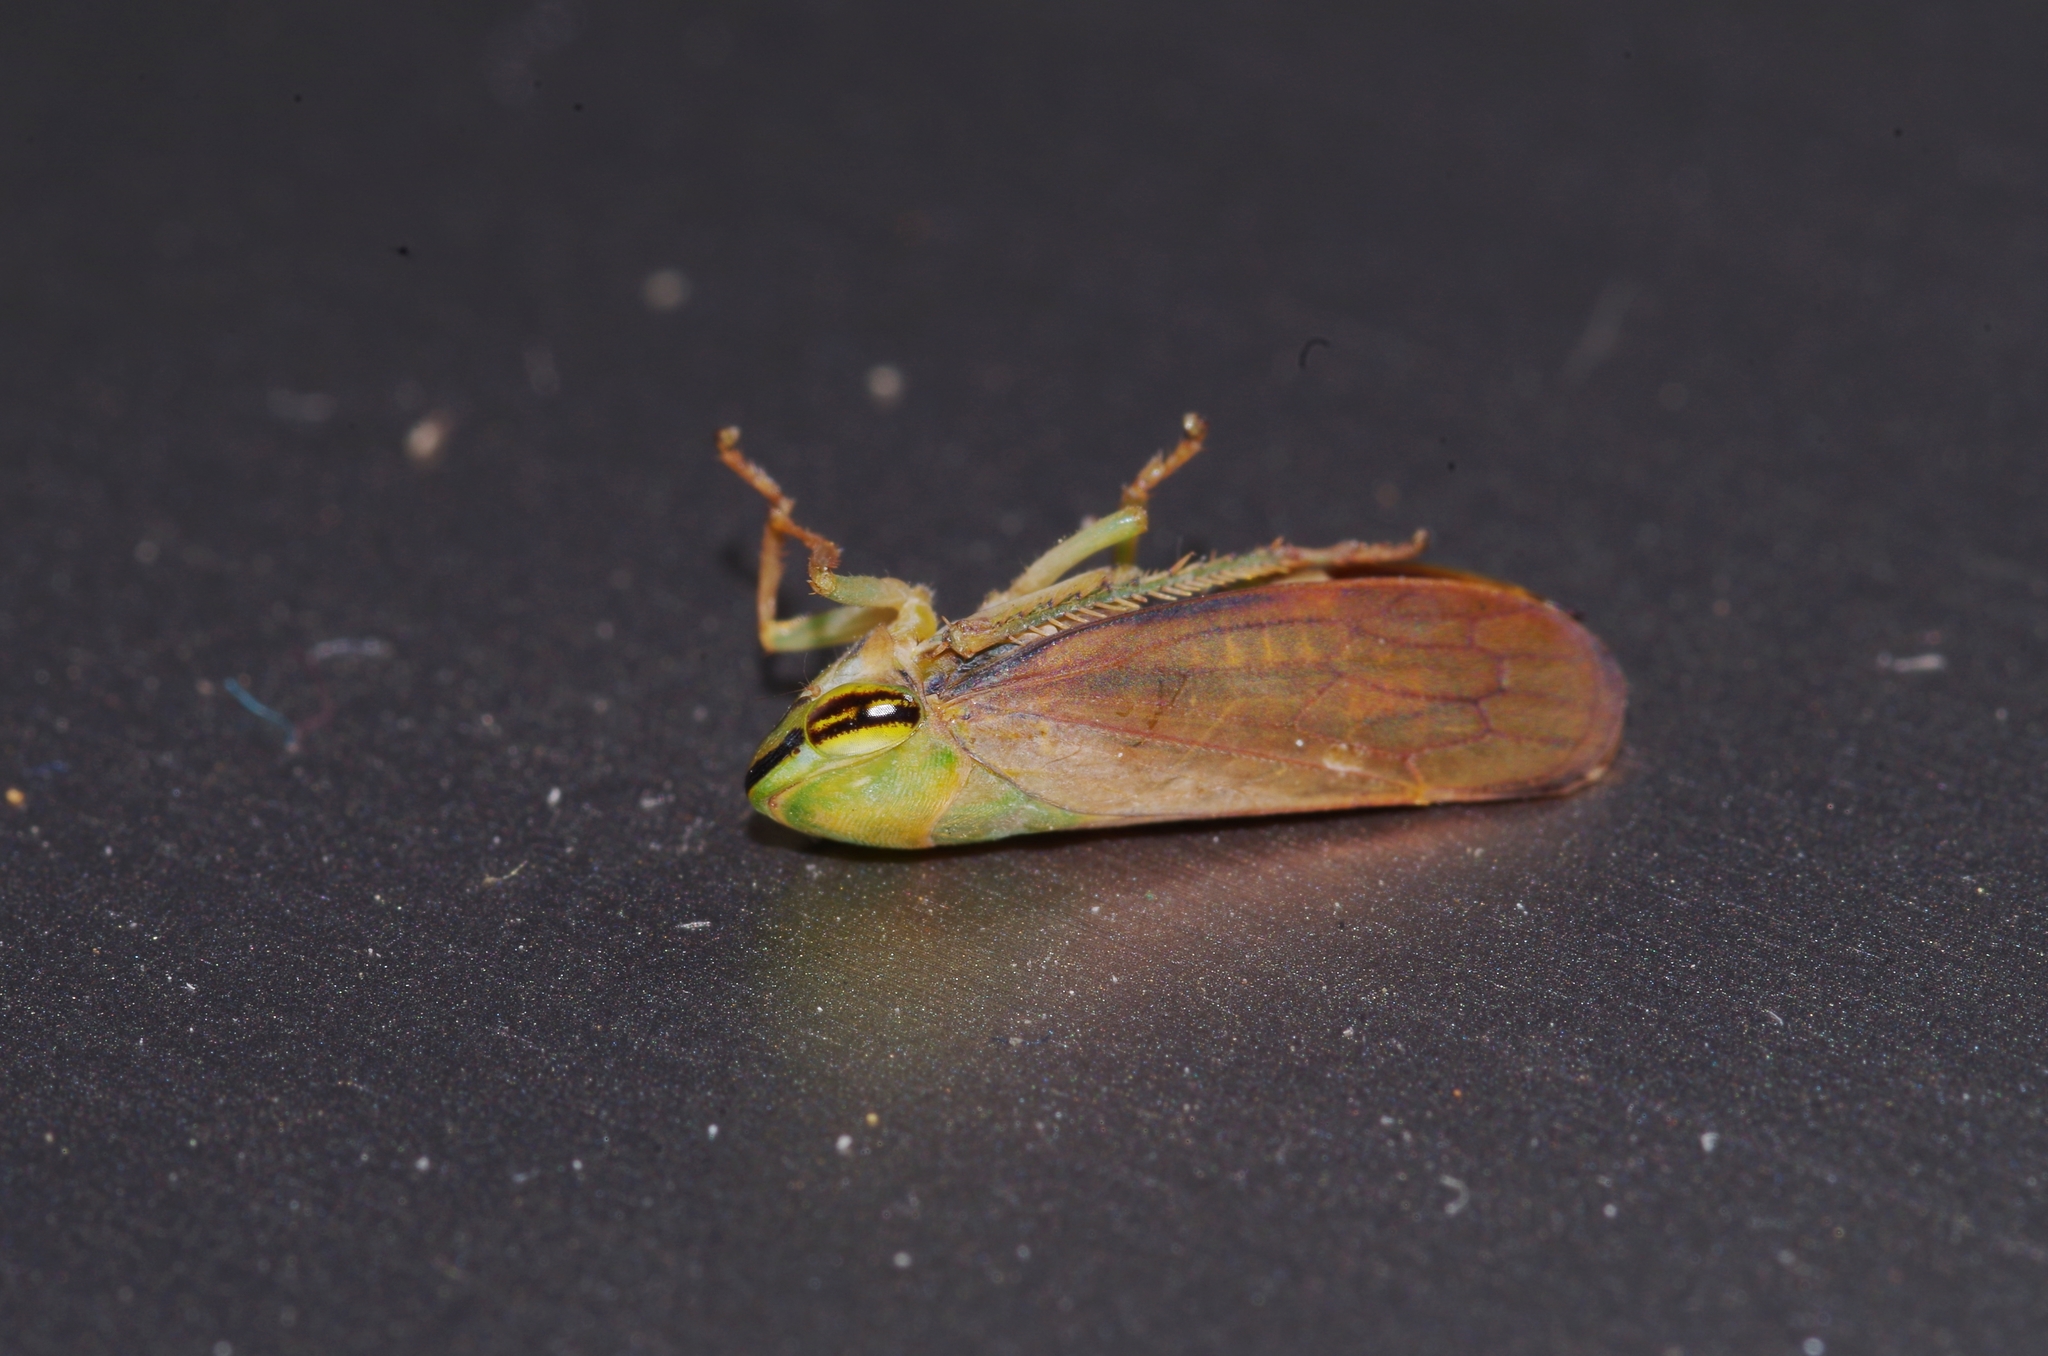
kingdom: Animalia
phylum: Arthropoda
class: Insecta
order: Hemiptera
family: Cicadellidae
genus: Tartessus
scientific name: Tartessus ferrugineus
